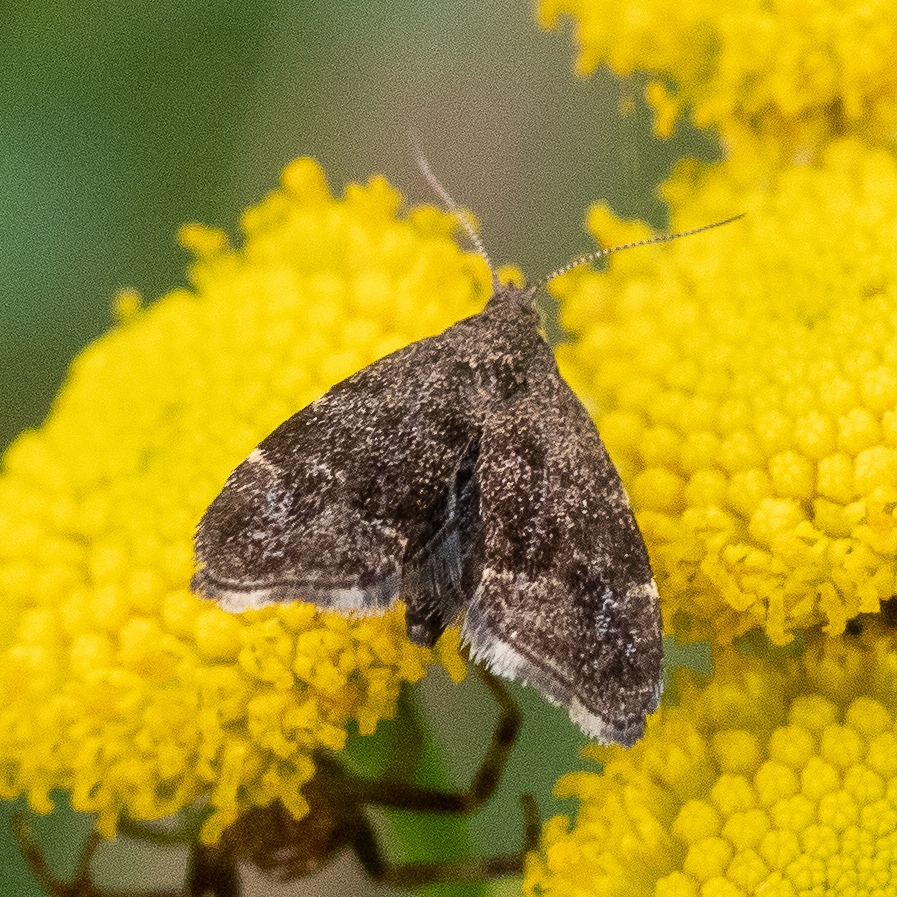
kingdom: Animalia
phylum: Arthropoda
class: Insecta
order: Lepidoptera
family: Choreutidae
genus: Anthophila
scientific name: Anthophila fabriciana
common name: Nettle-tap
